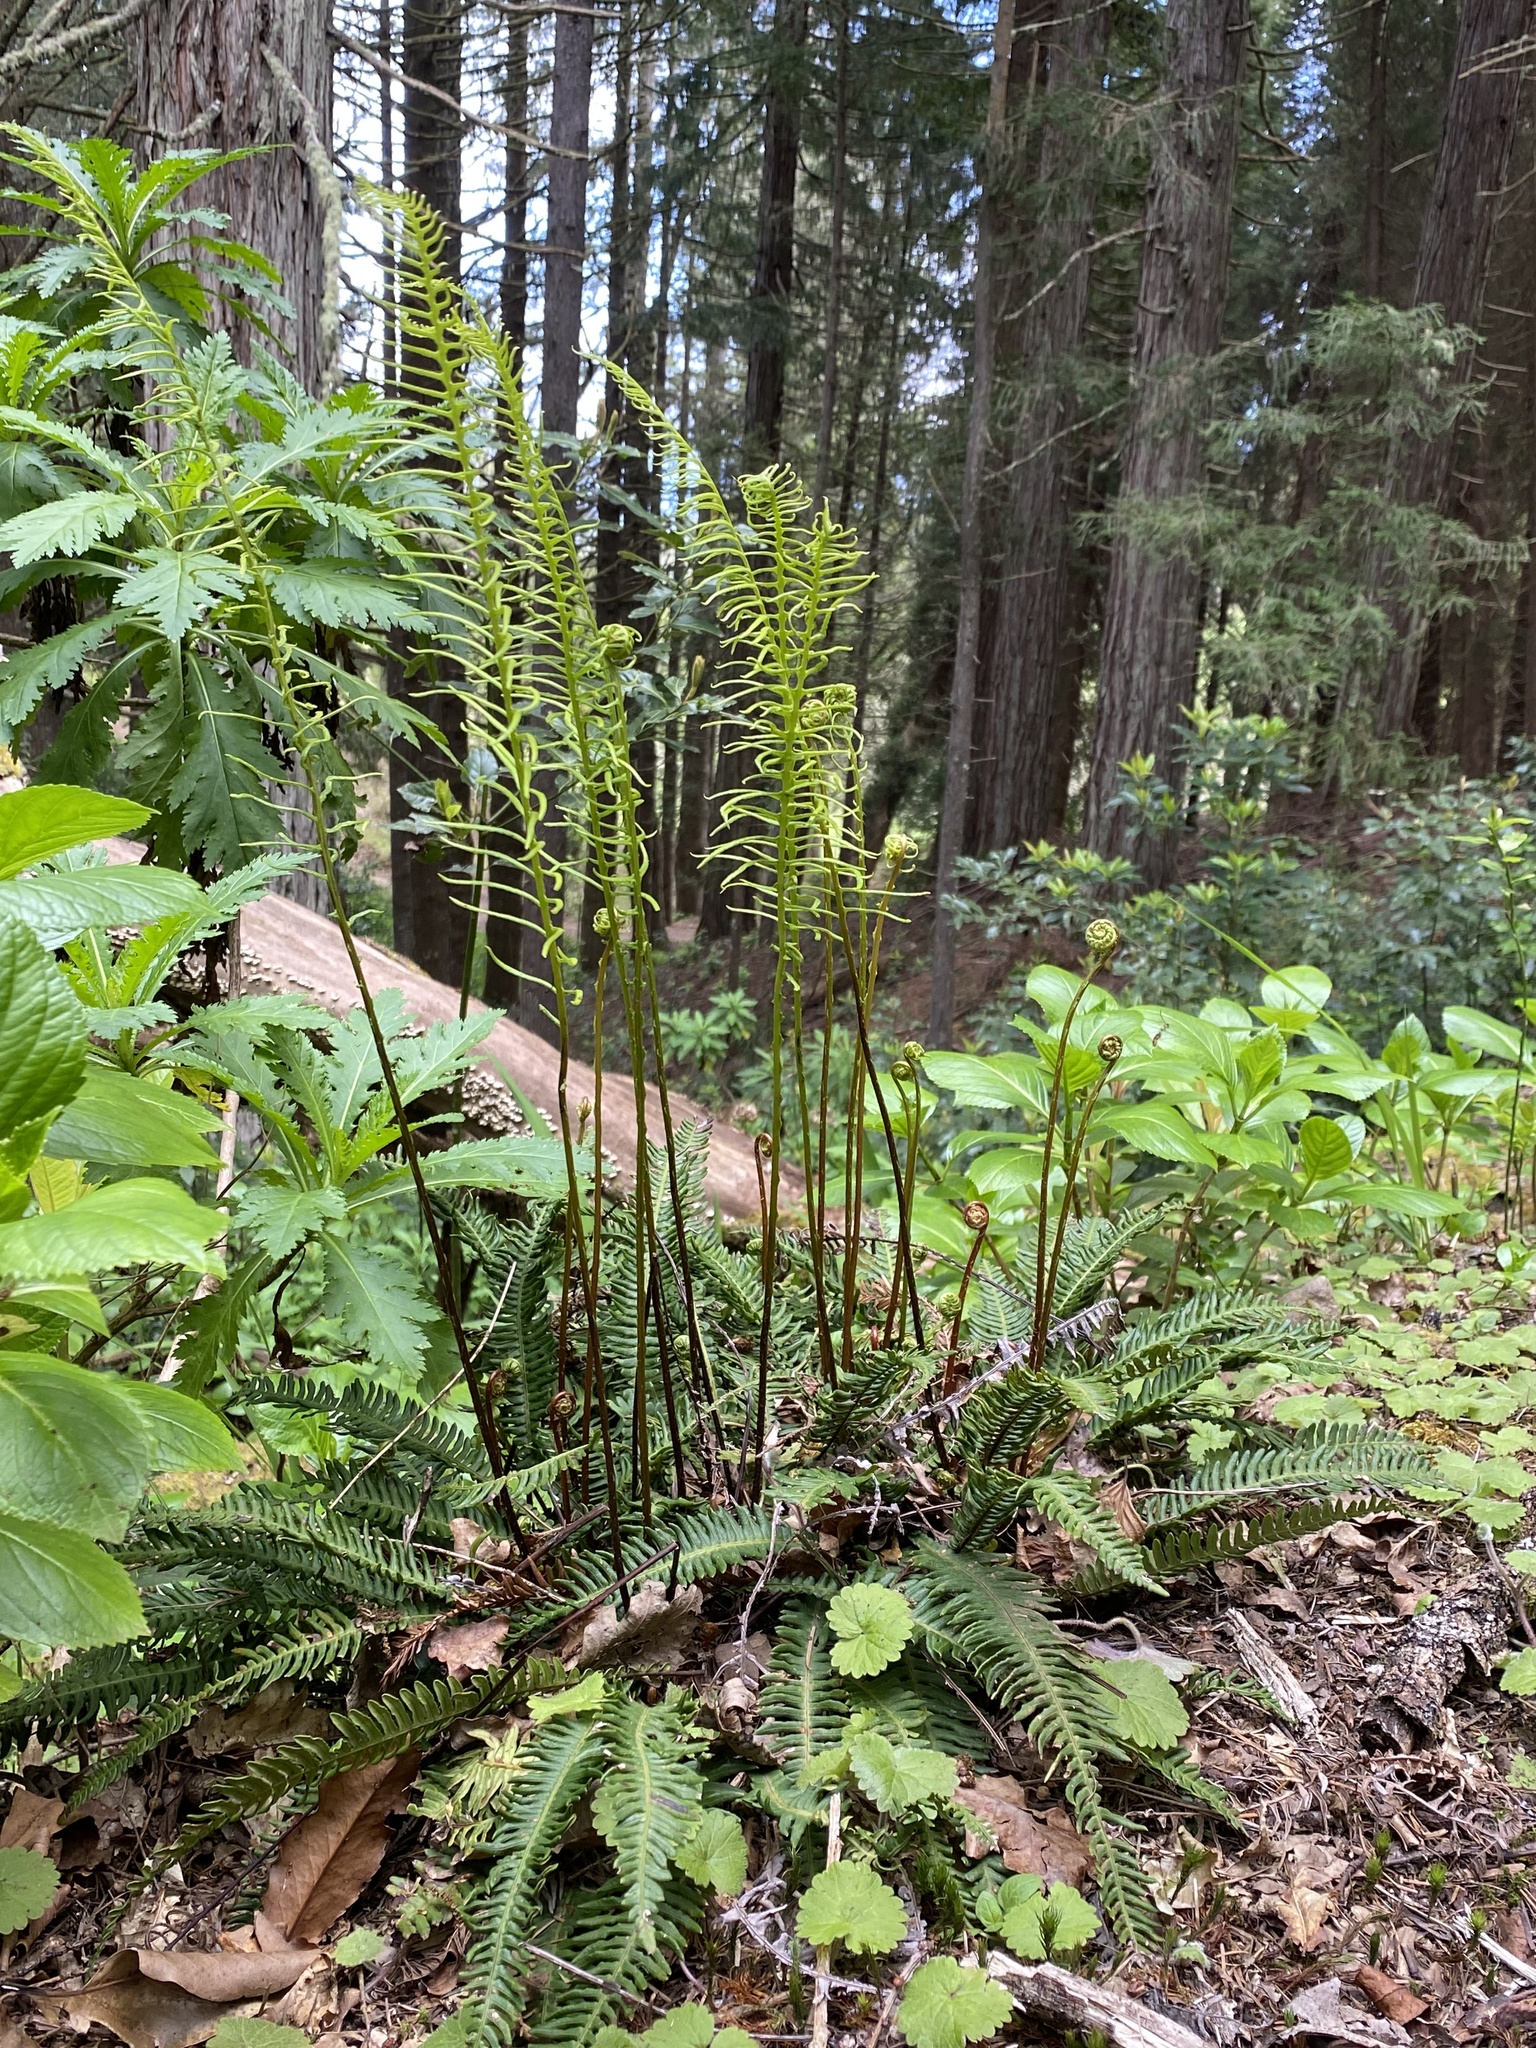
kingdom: Plantae
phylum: Tracheophyta
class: Polypodiopsida
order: Polypodiales
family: Blechnaceae
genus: Struthiopteris
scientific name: Struthiopteris spicant
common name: Deer fern
